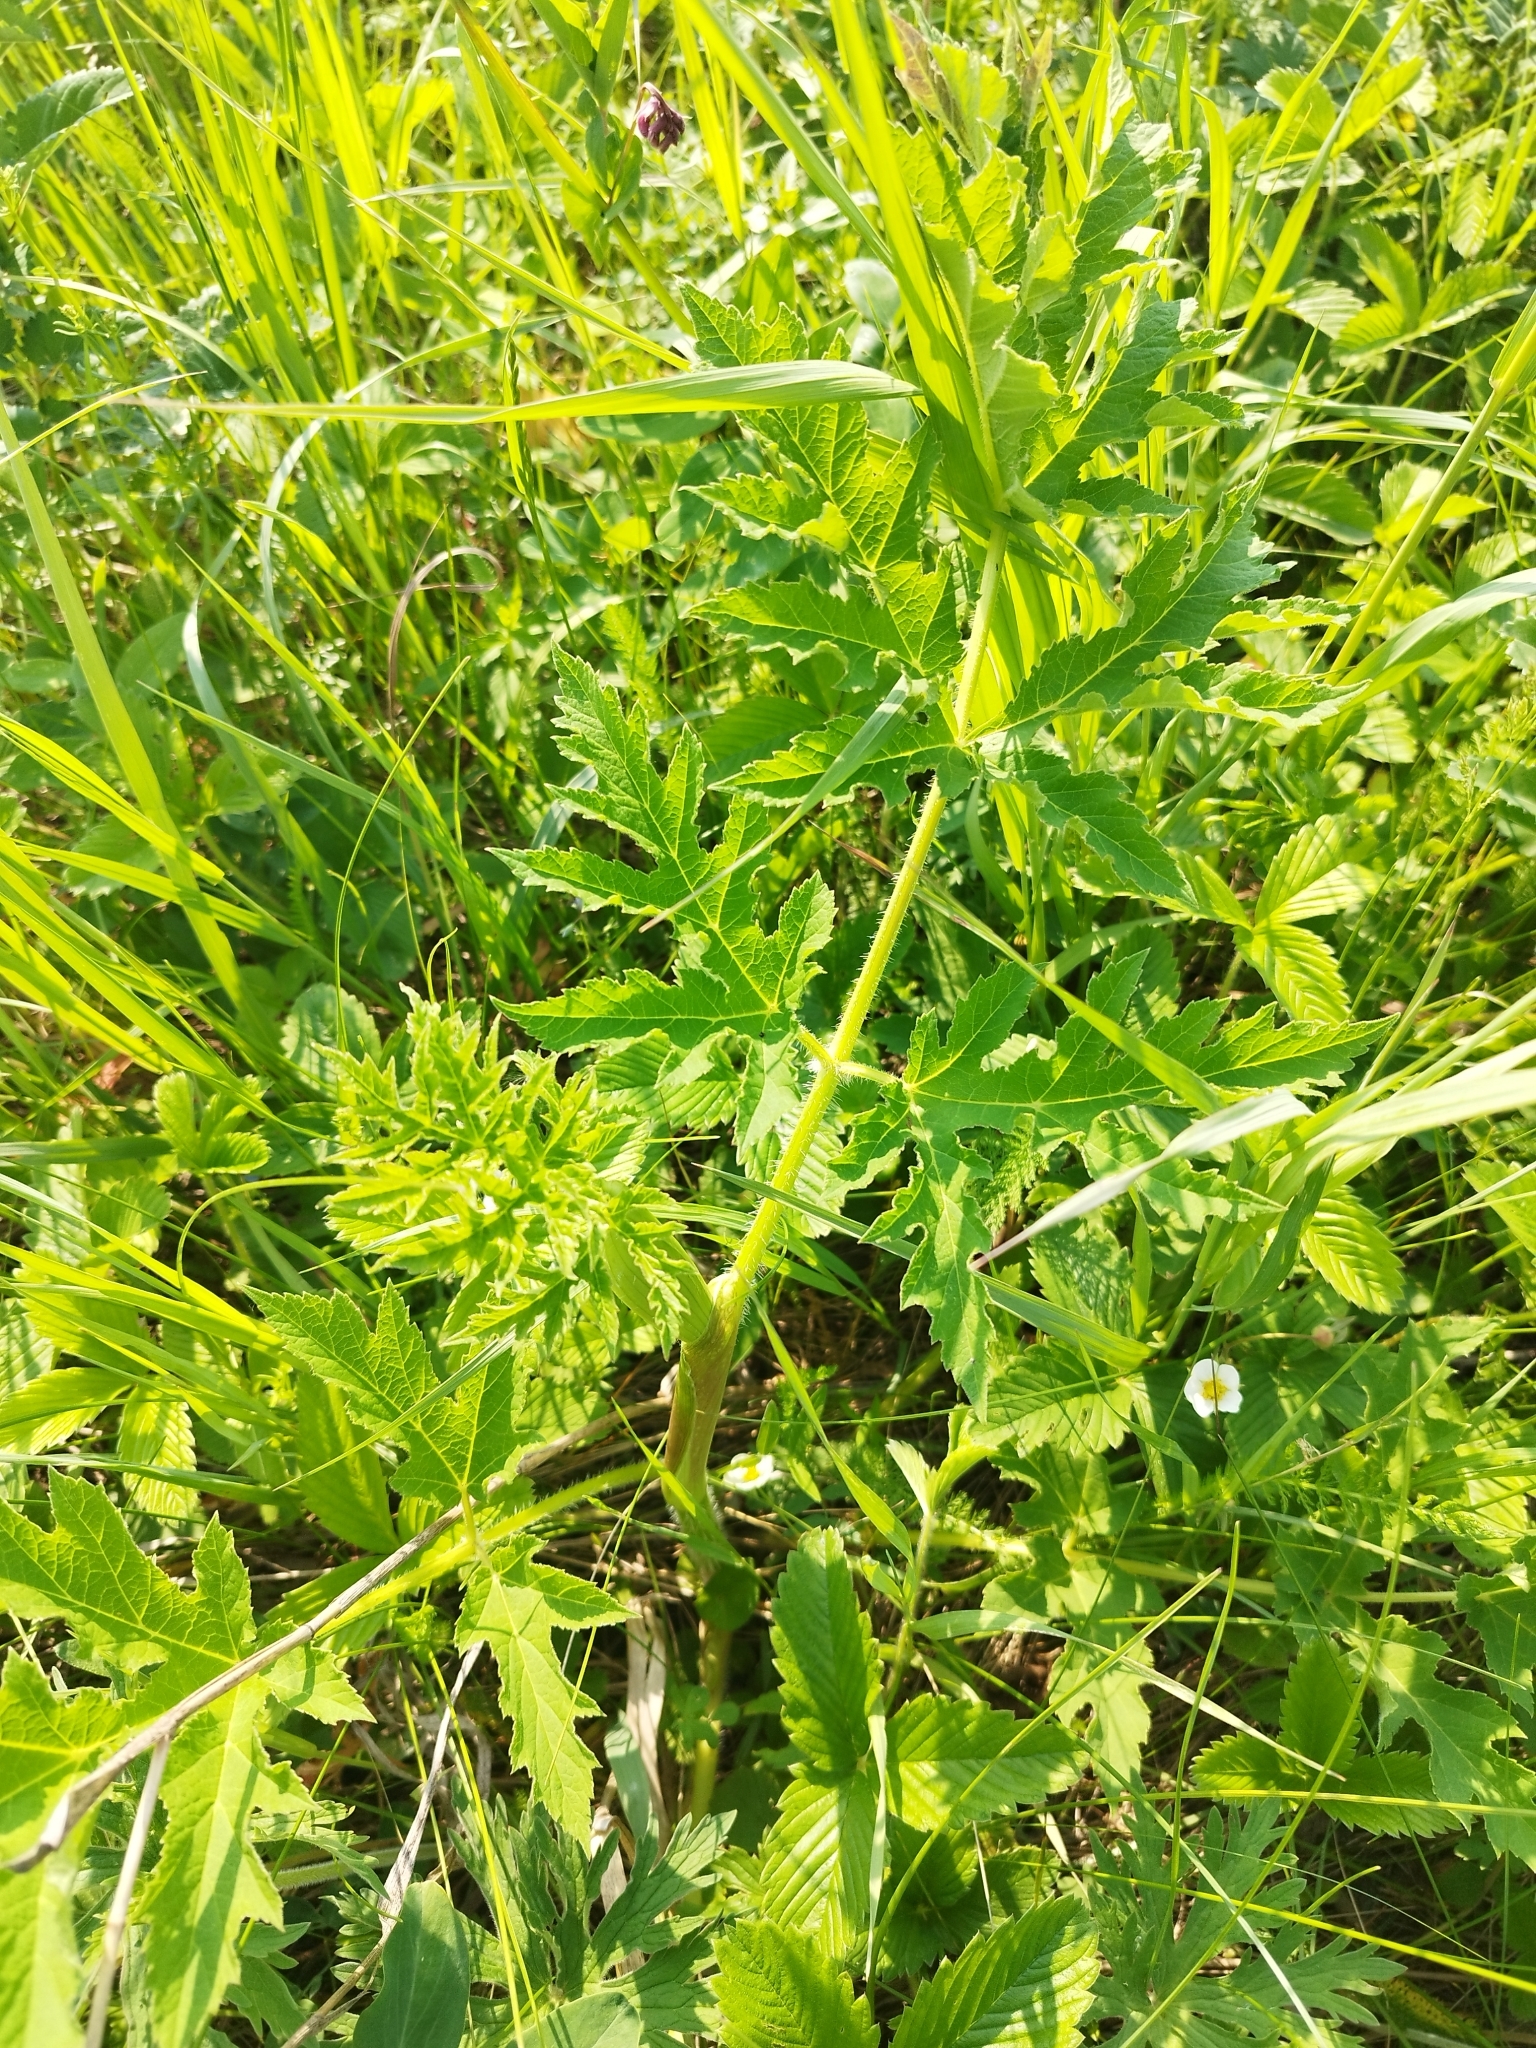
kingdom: Plantae
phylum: Tracheophyta
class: Magnoliopsida
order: Apiales
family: Apiaceae
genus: Heracleum
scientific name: Heracleum sphondylium
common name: Hogweed
